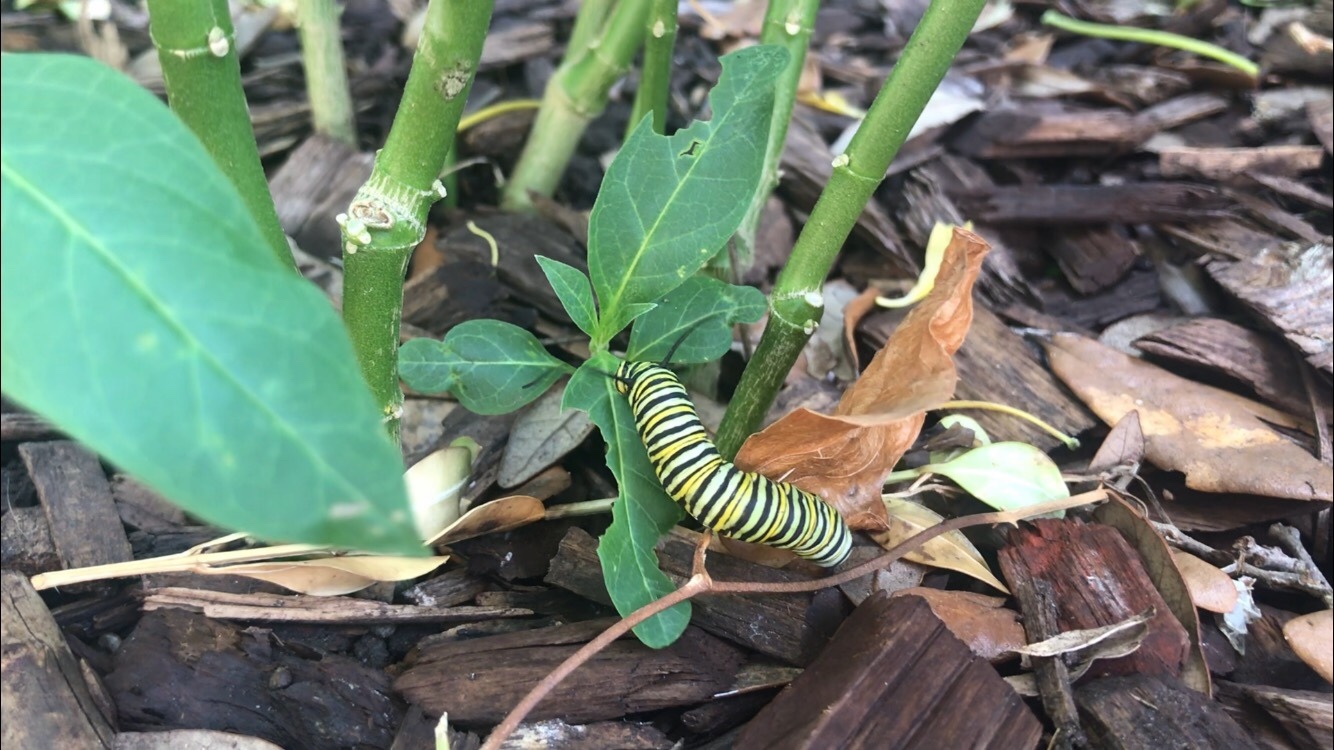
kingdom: Animalia
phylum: Arthropoda
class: Insecta
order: Lepidoptera
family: Nymphalidae
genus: Danaus
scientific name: Danaus plexippus
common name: Monarch
